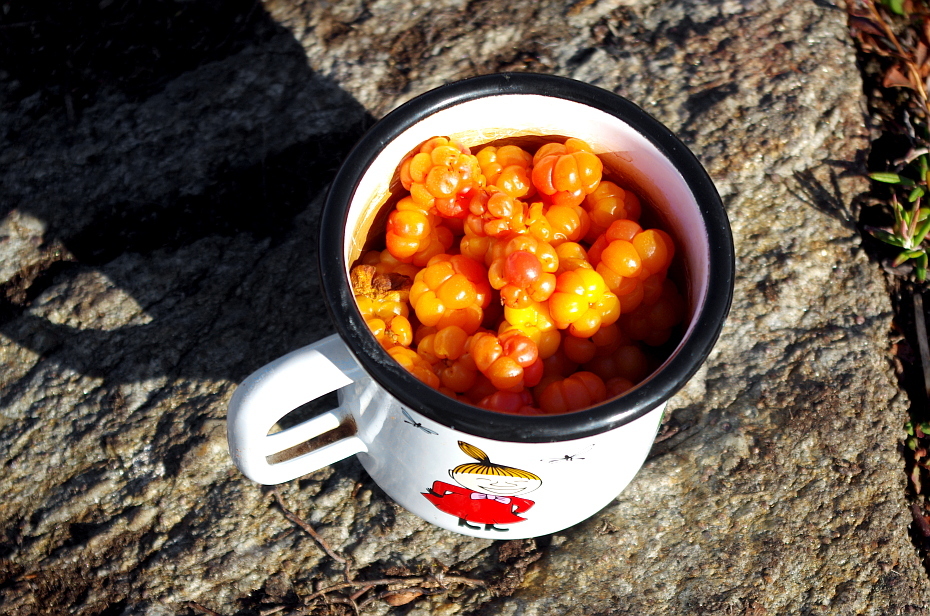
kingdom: Plantae
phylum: Tracheophyta
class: Magnoliopsida
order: Rosales
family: Rosaceae
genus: Rubus
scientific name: Rubus chamaemorus
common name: Cloudberry
